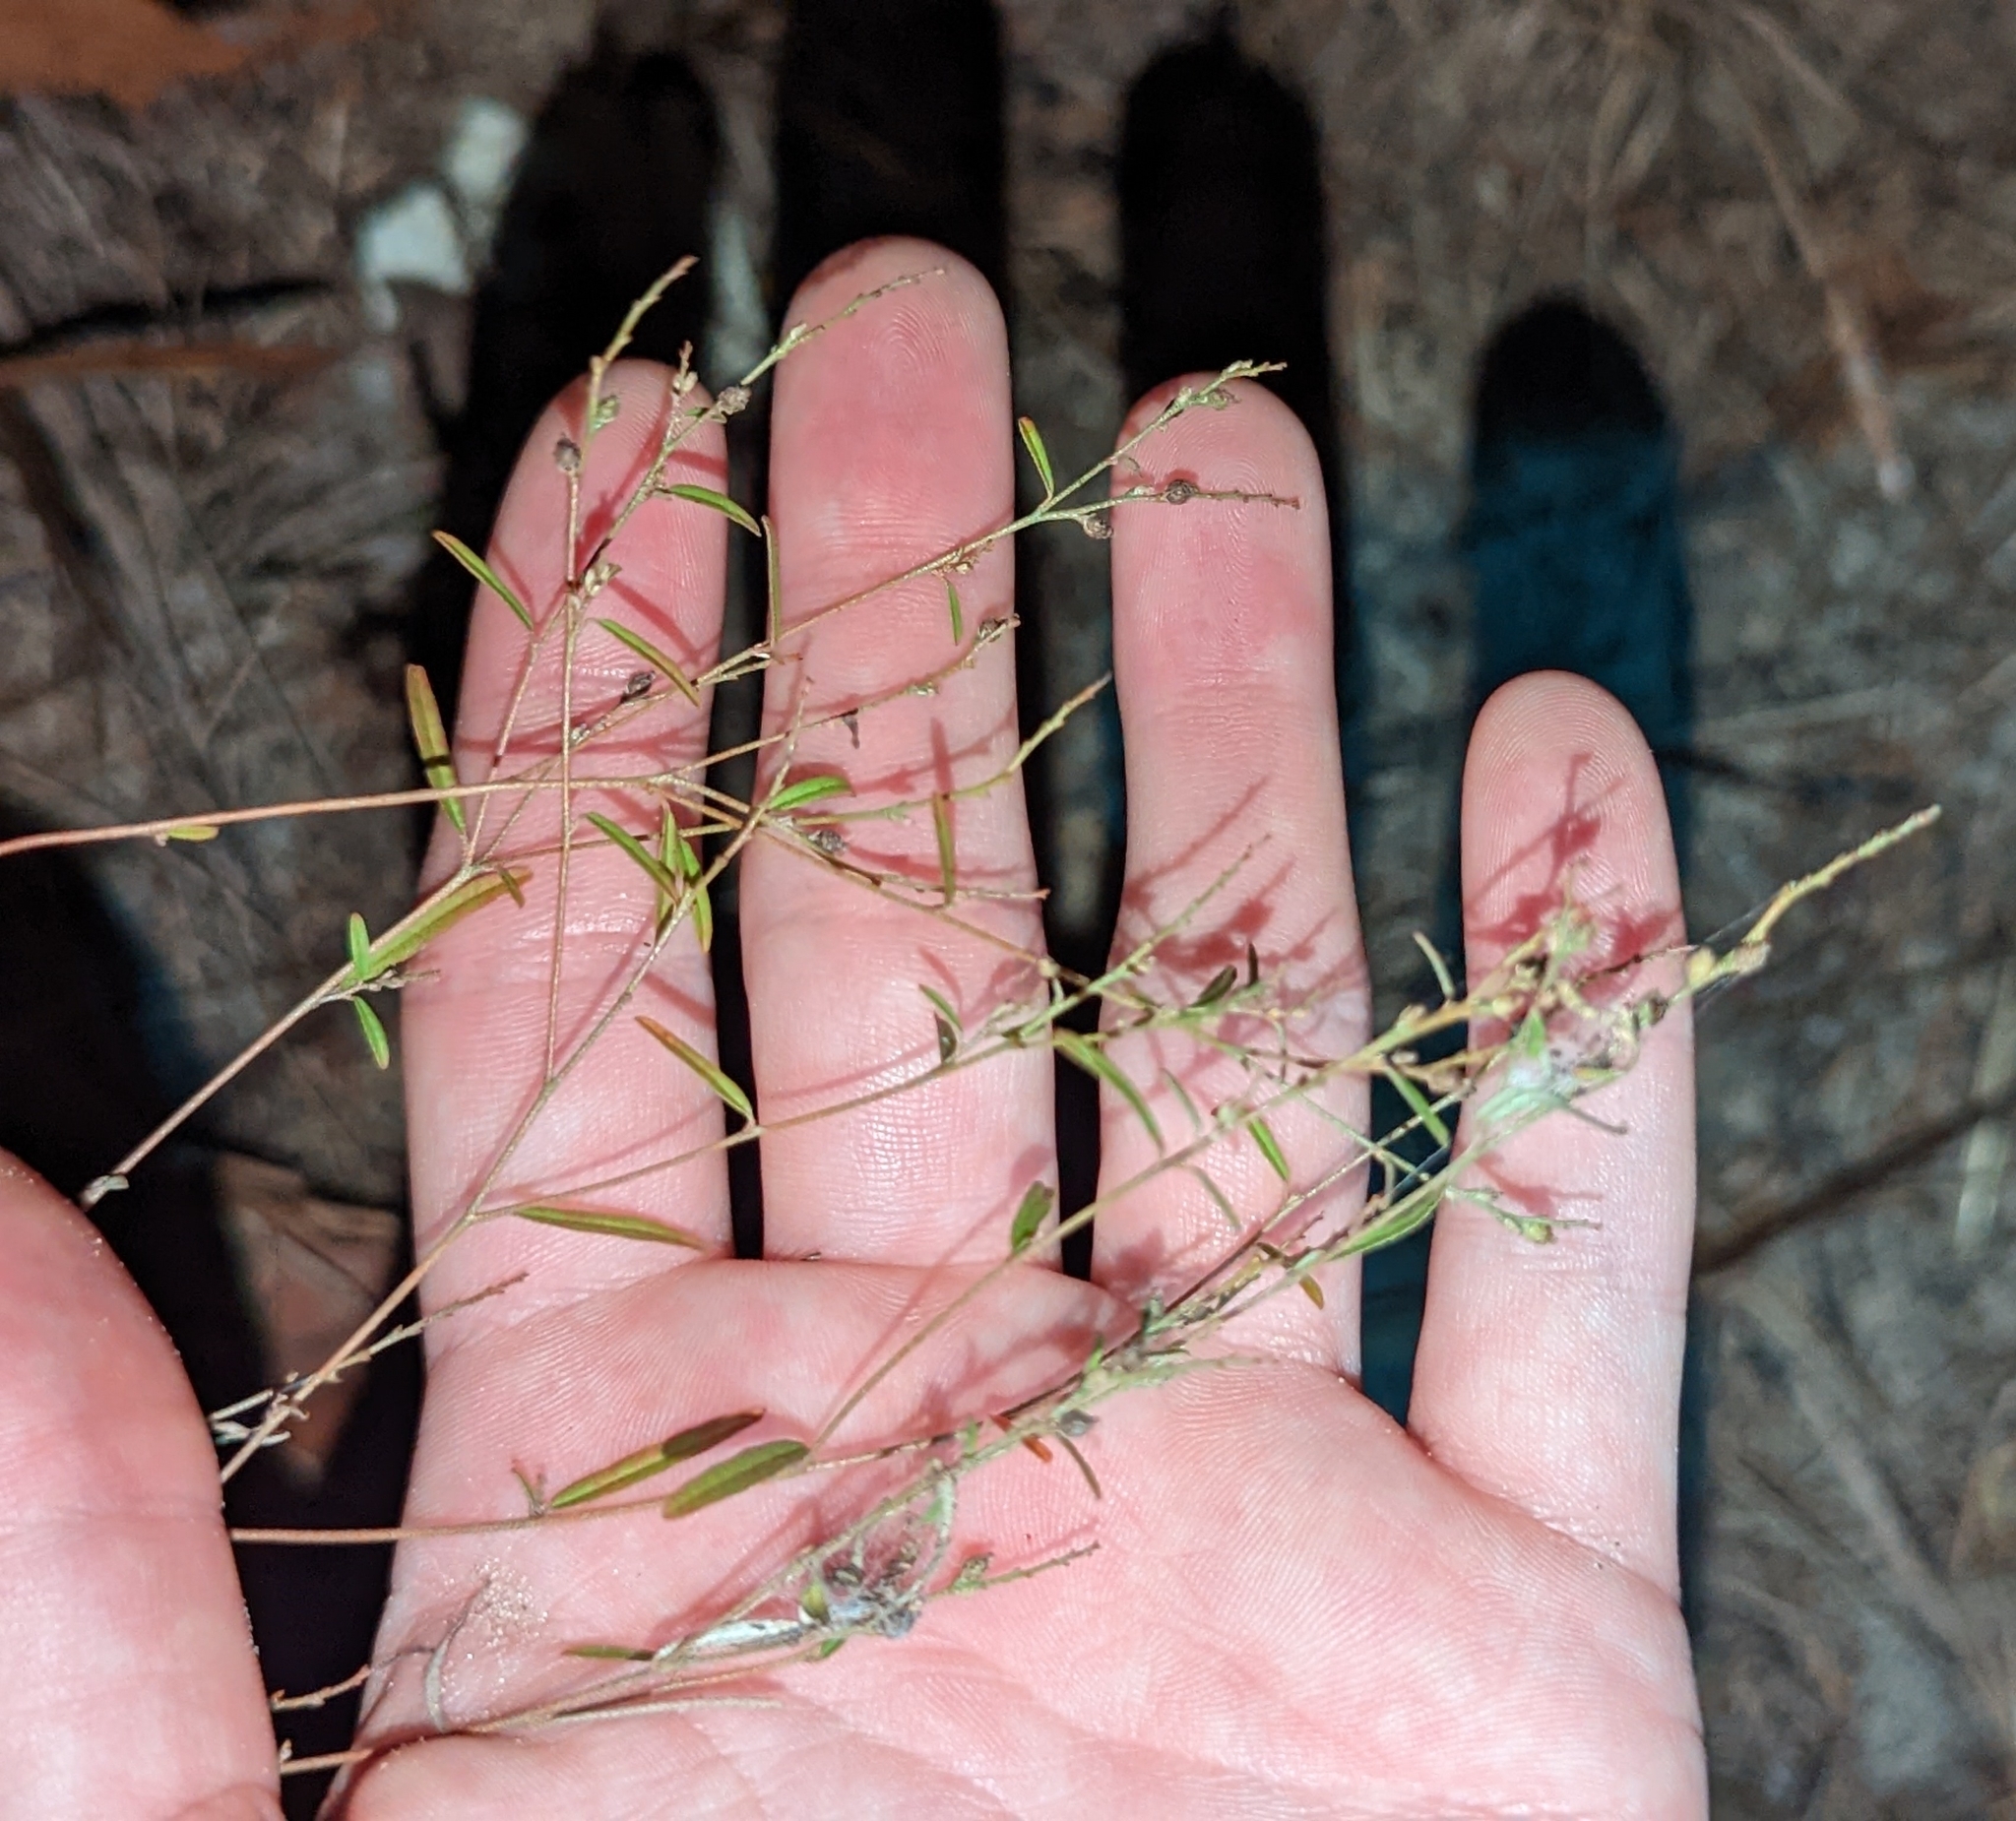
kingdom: Plantae
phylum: Tracheophyta
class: Magnoliopsida
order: Malpighiales
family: Euphorbiaceae
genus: Croton
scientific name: Croton michauxii
